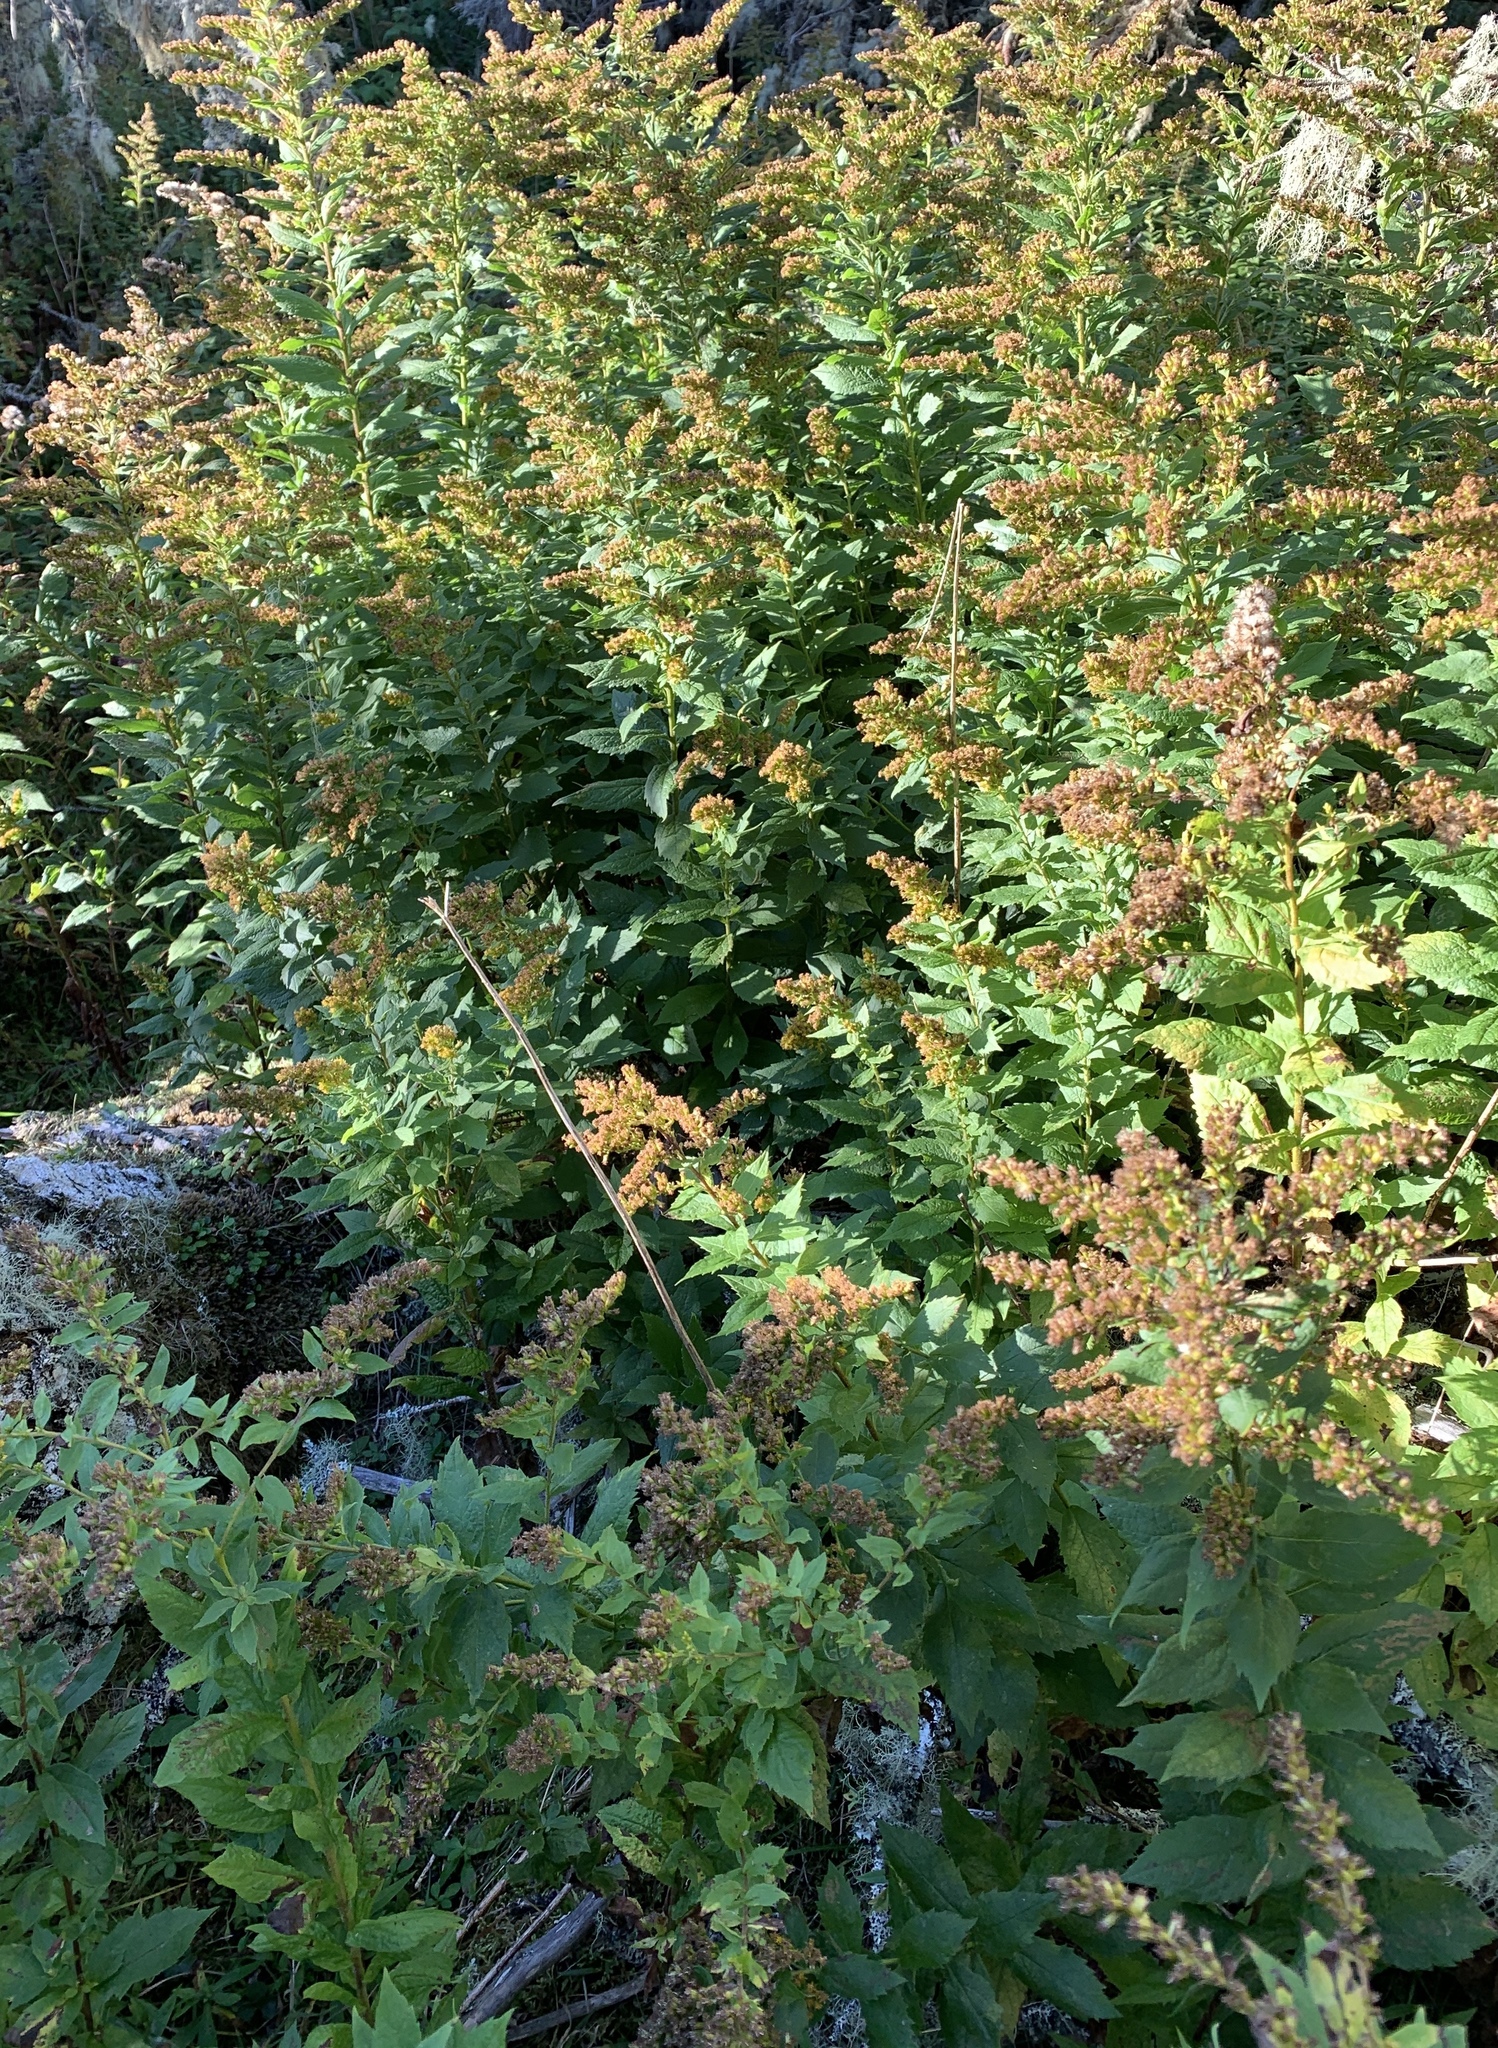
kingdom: Plantae
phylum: Tracheophyta
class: Magnoliopsida
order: Asterales
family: Asteraceae
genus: Solidago
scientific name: Solidago rugosa
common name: Rough-stemmed goldenrod
